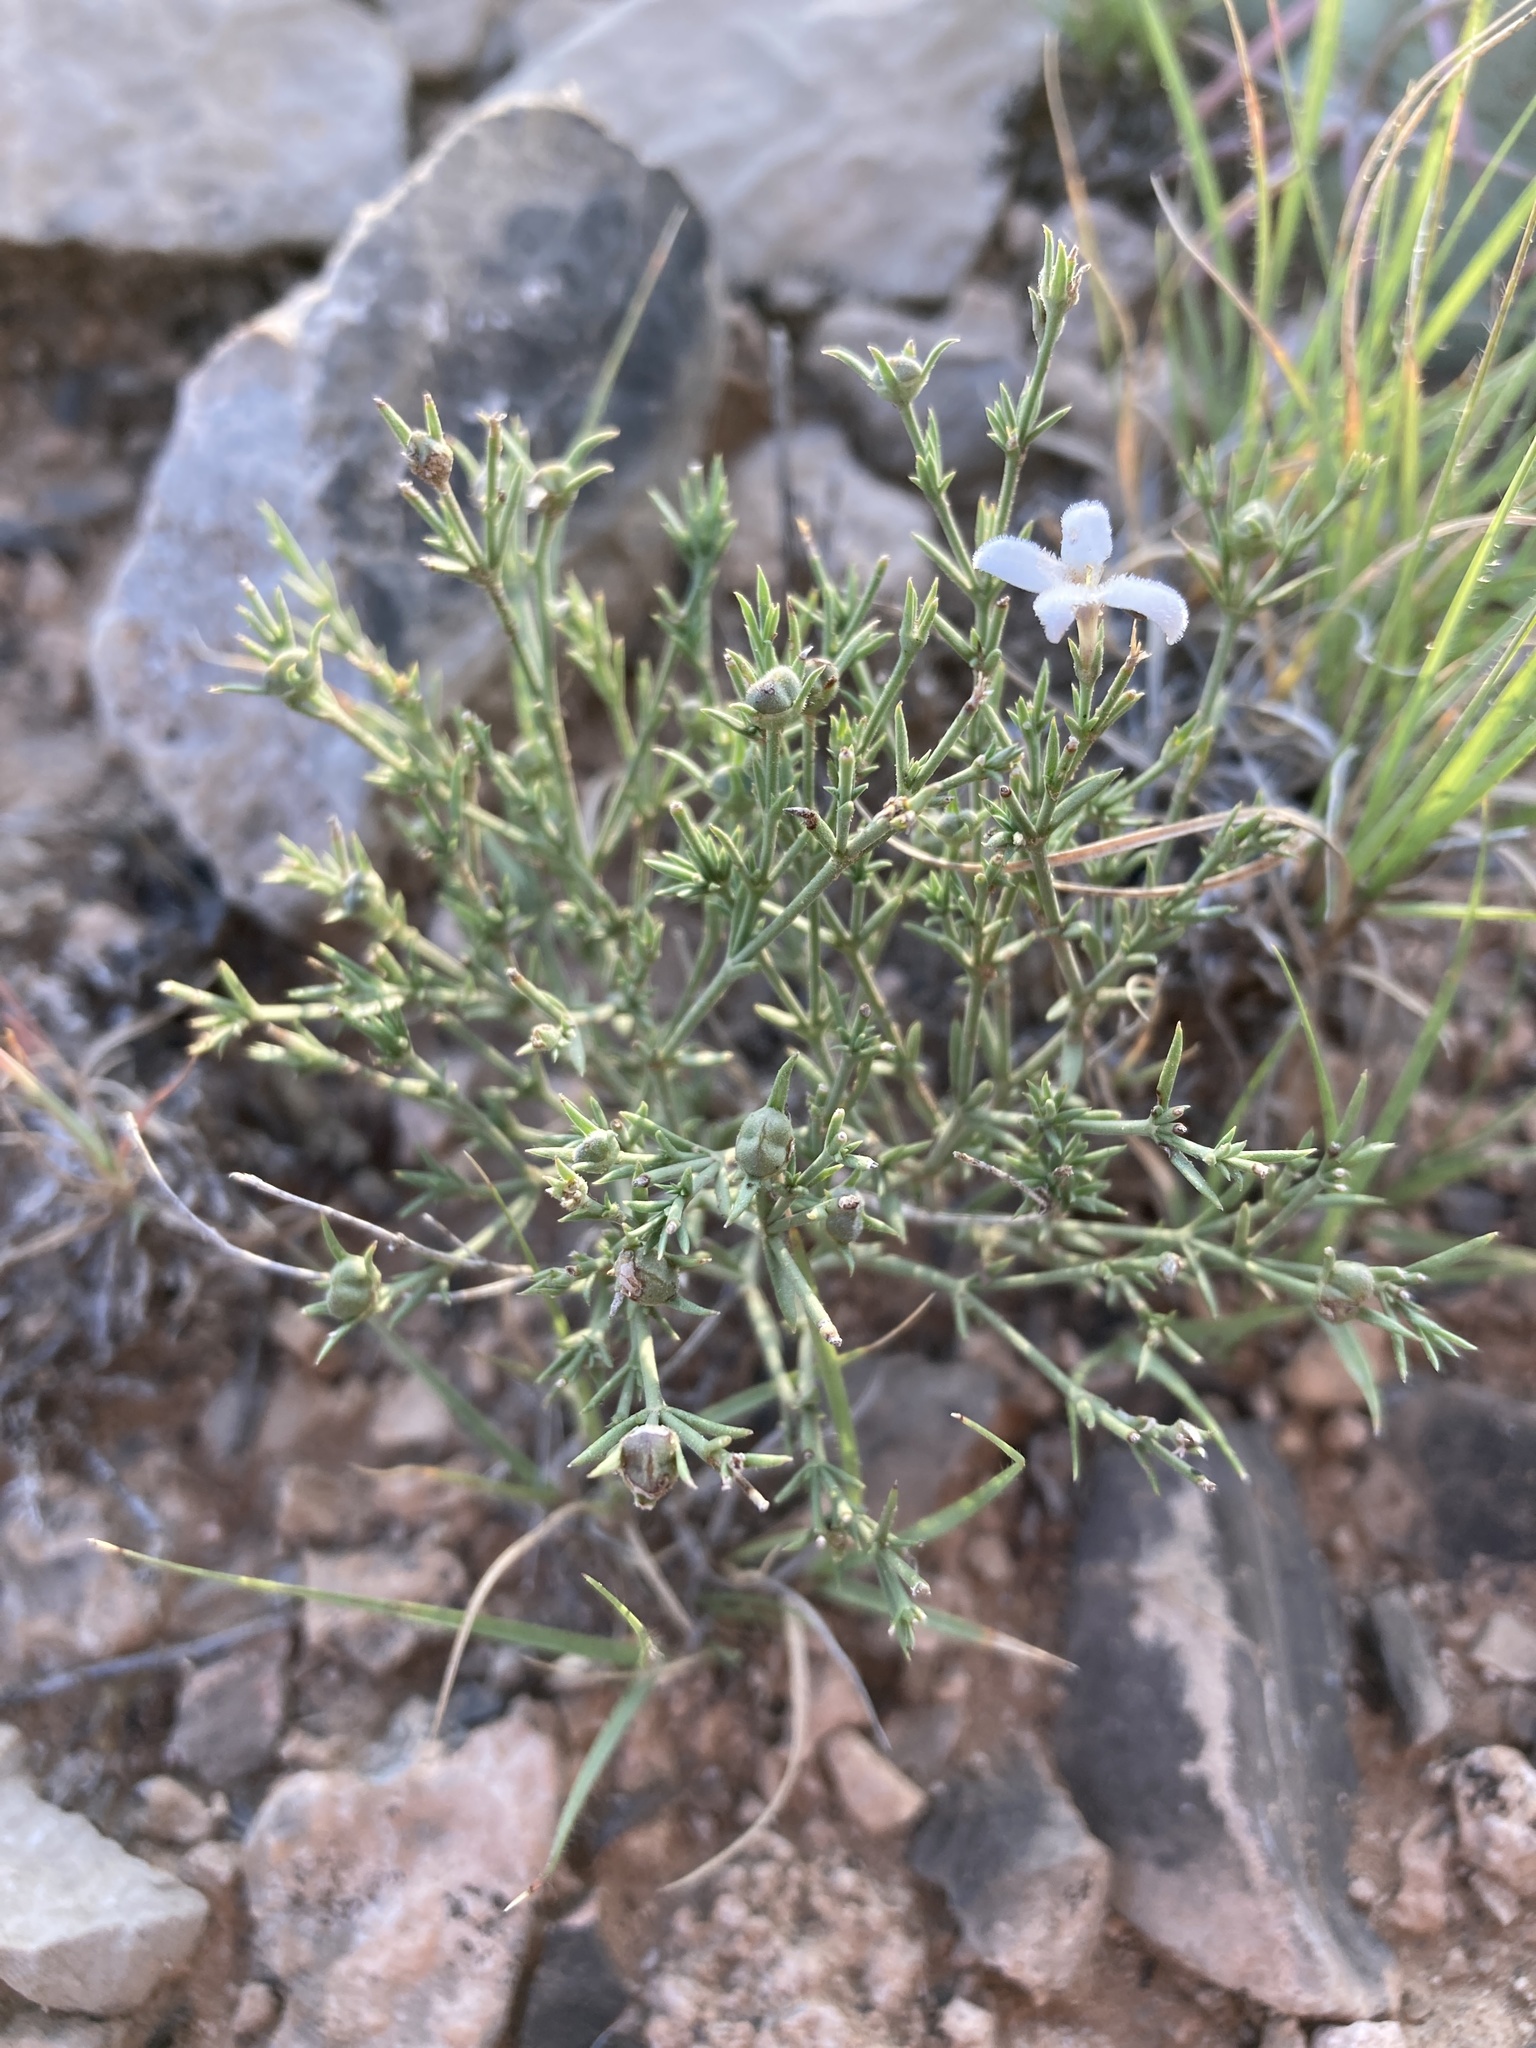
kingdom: Plantae
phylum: Tracheophyta
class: Magnoliopsida
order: Gentianales
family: Rubiaceae
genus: Houstonia
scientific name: Houstonia acerosa
